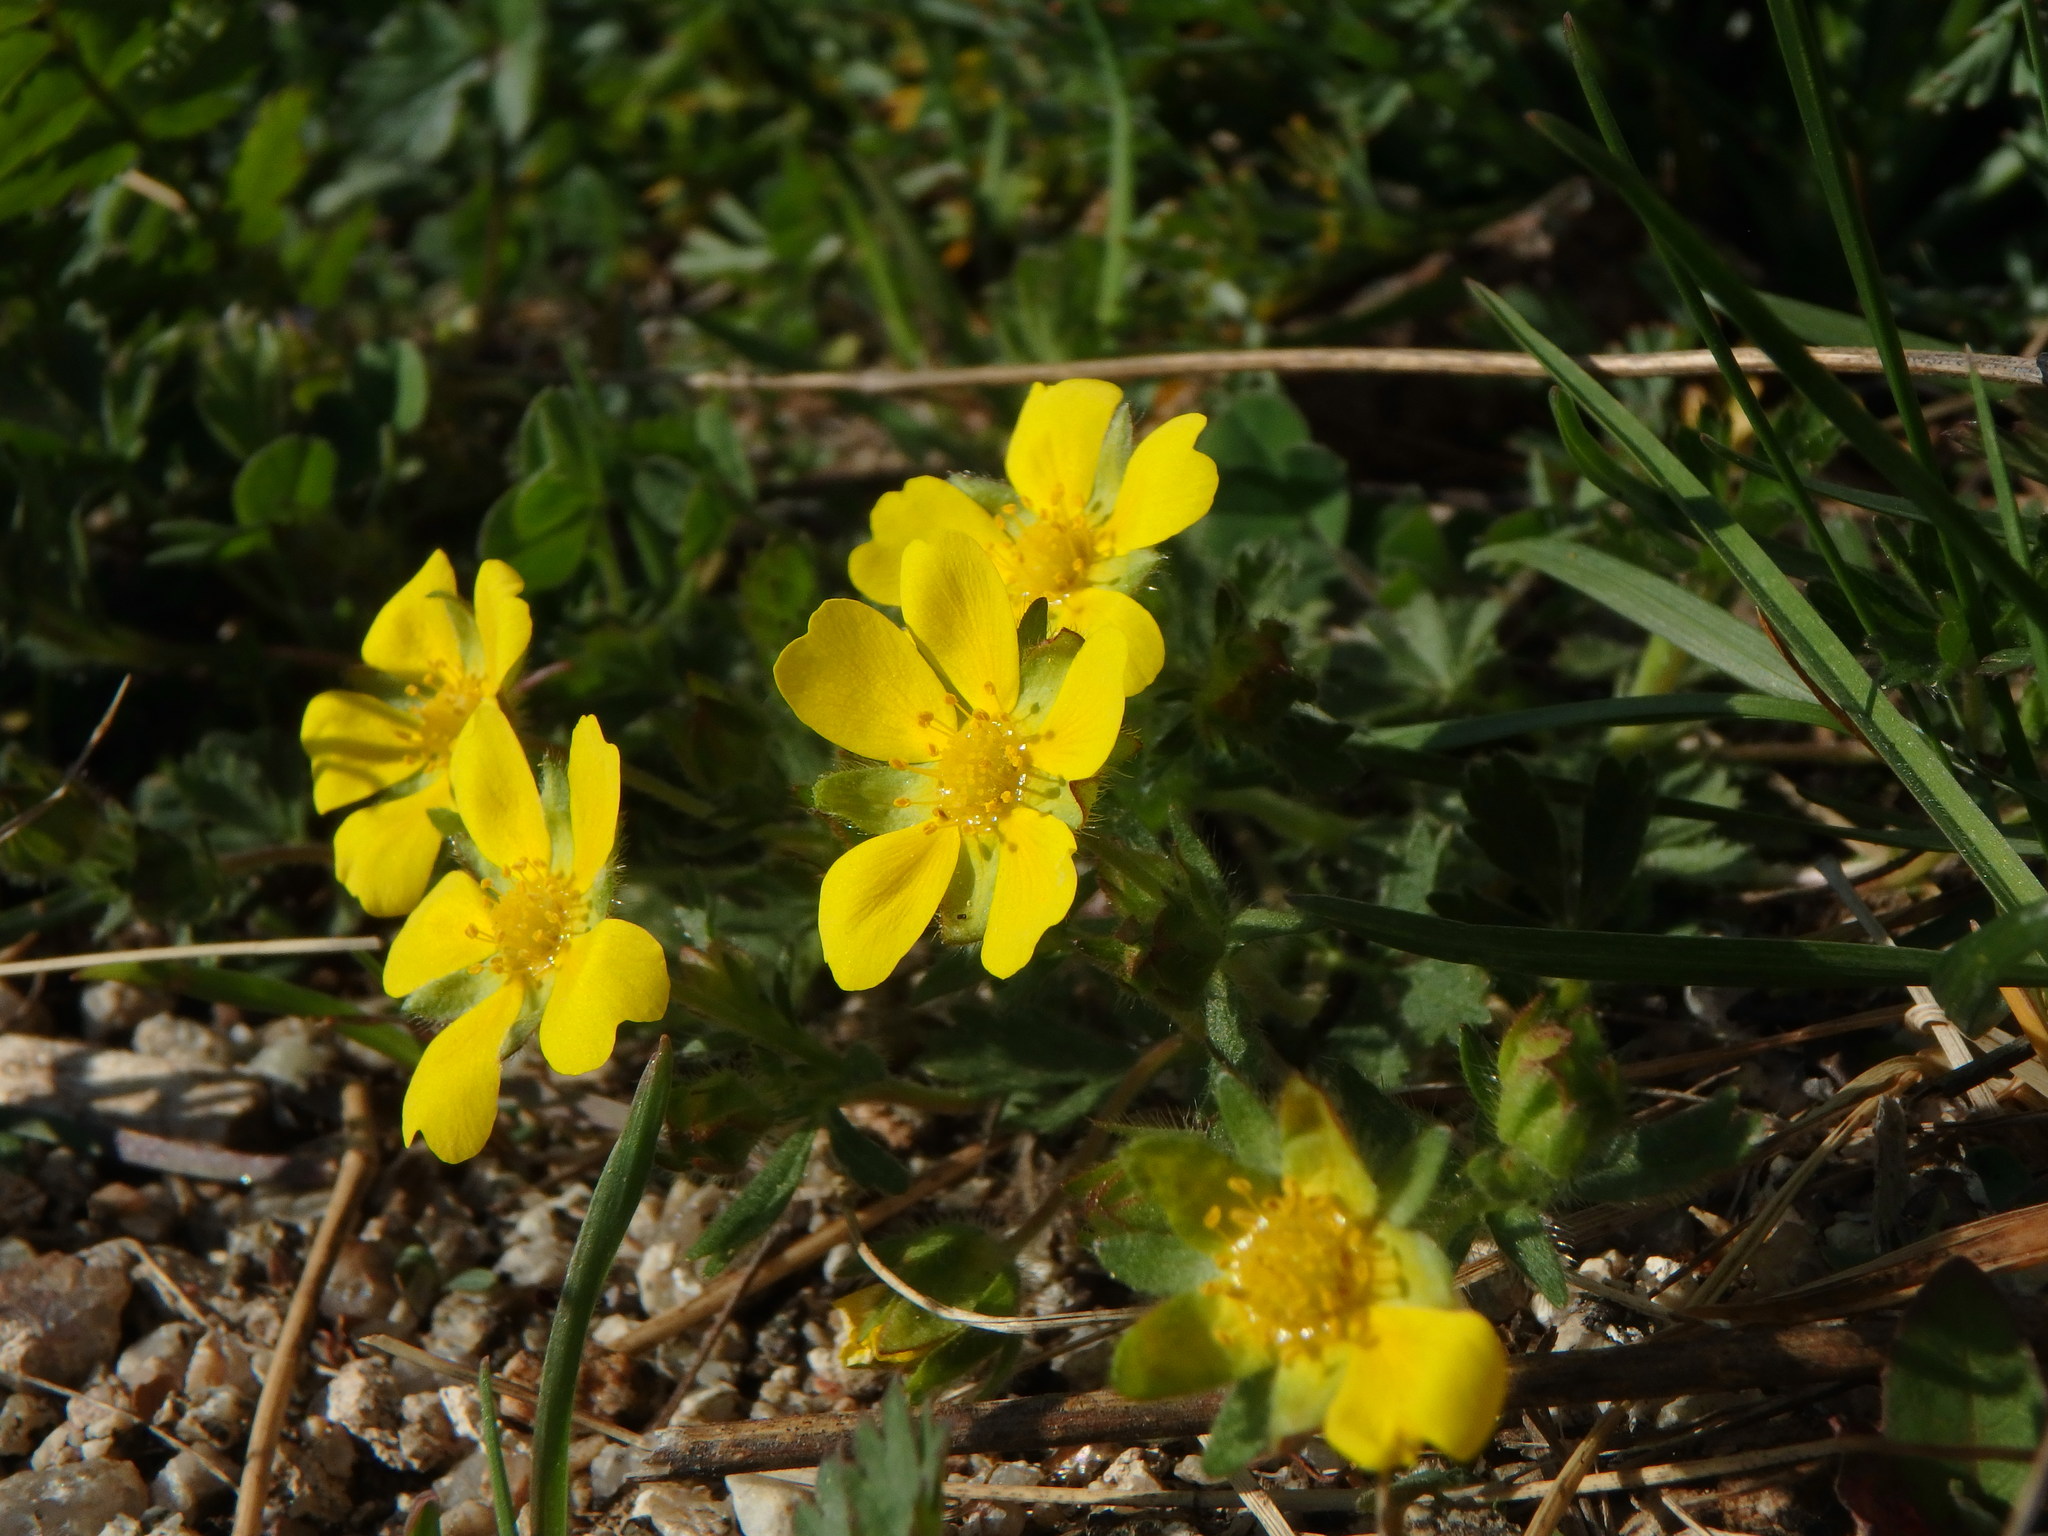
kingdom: Plantae
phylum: Tracheophyta
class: Magnoliopsida
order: Rosales
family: Rosaceae
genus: Potentilla
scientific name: Potentilla verna
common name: Spring cinquefoil
